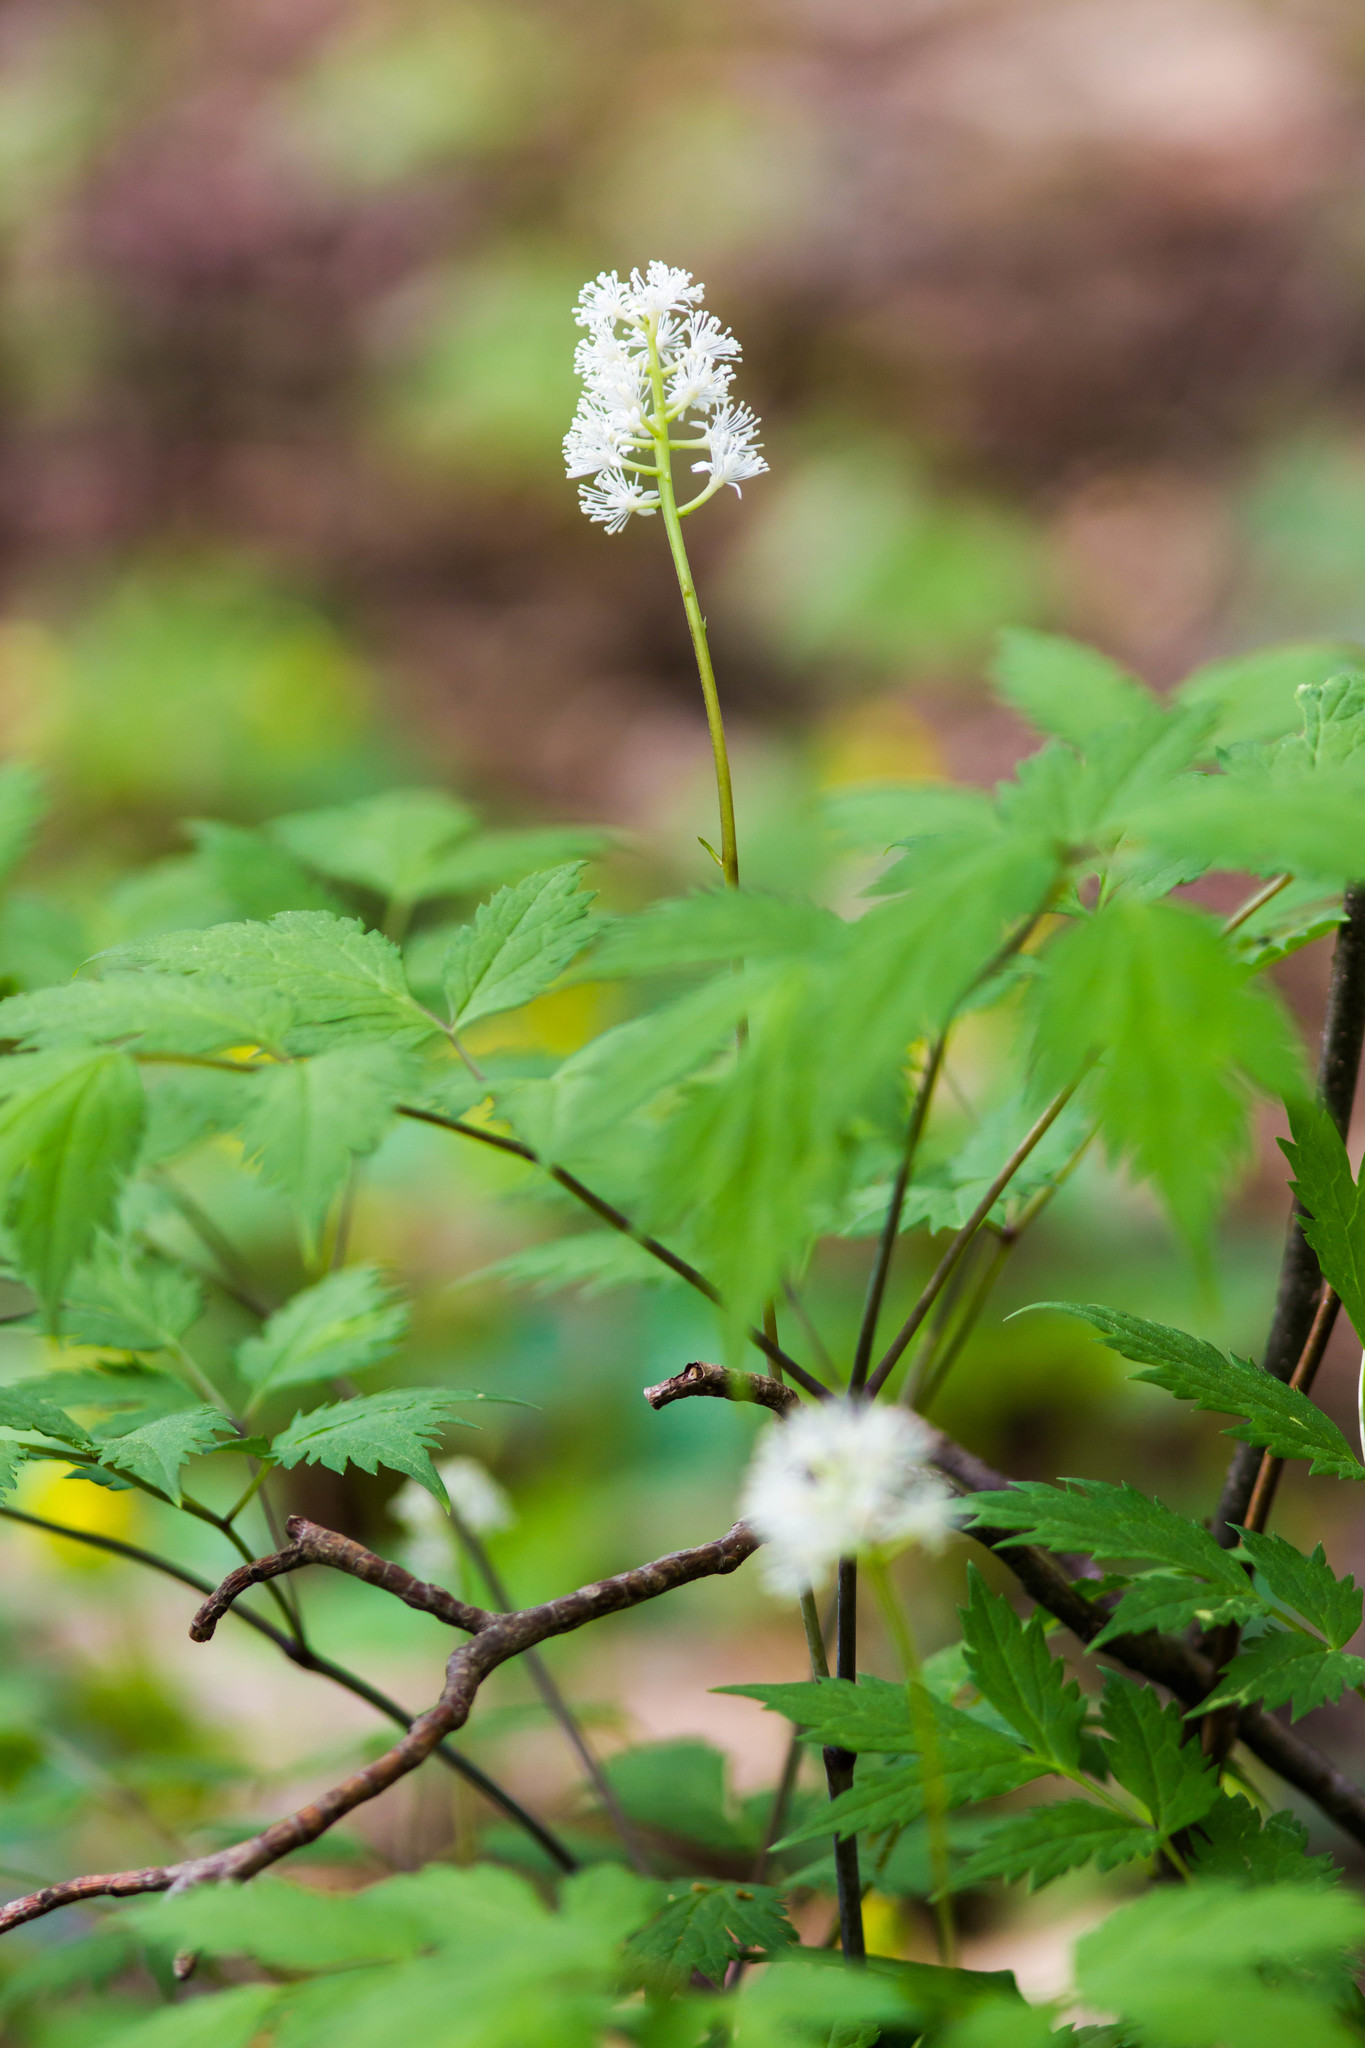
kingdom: Plantae
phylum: Tracheophyta
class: Magnoliopsida
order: Ranunculales
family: Ranunculaceae
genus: Actaea
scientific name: Actaea pachypoda
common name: Doll's-eyes
